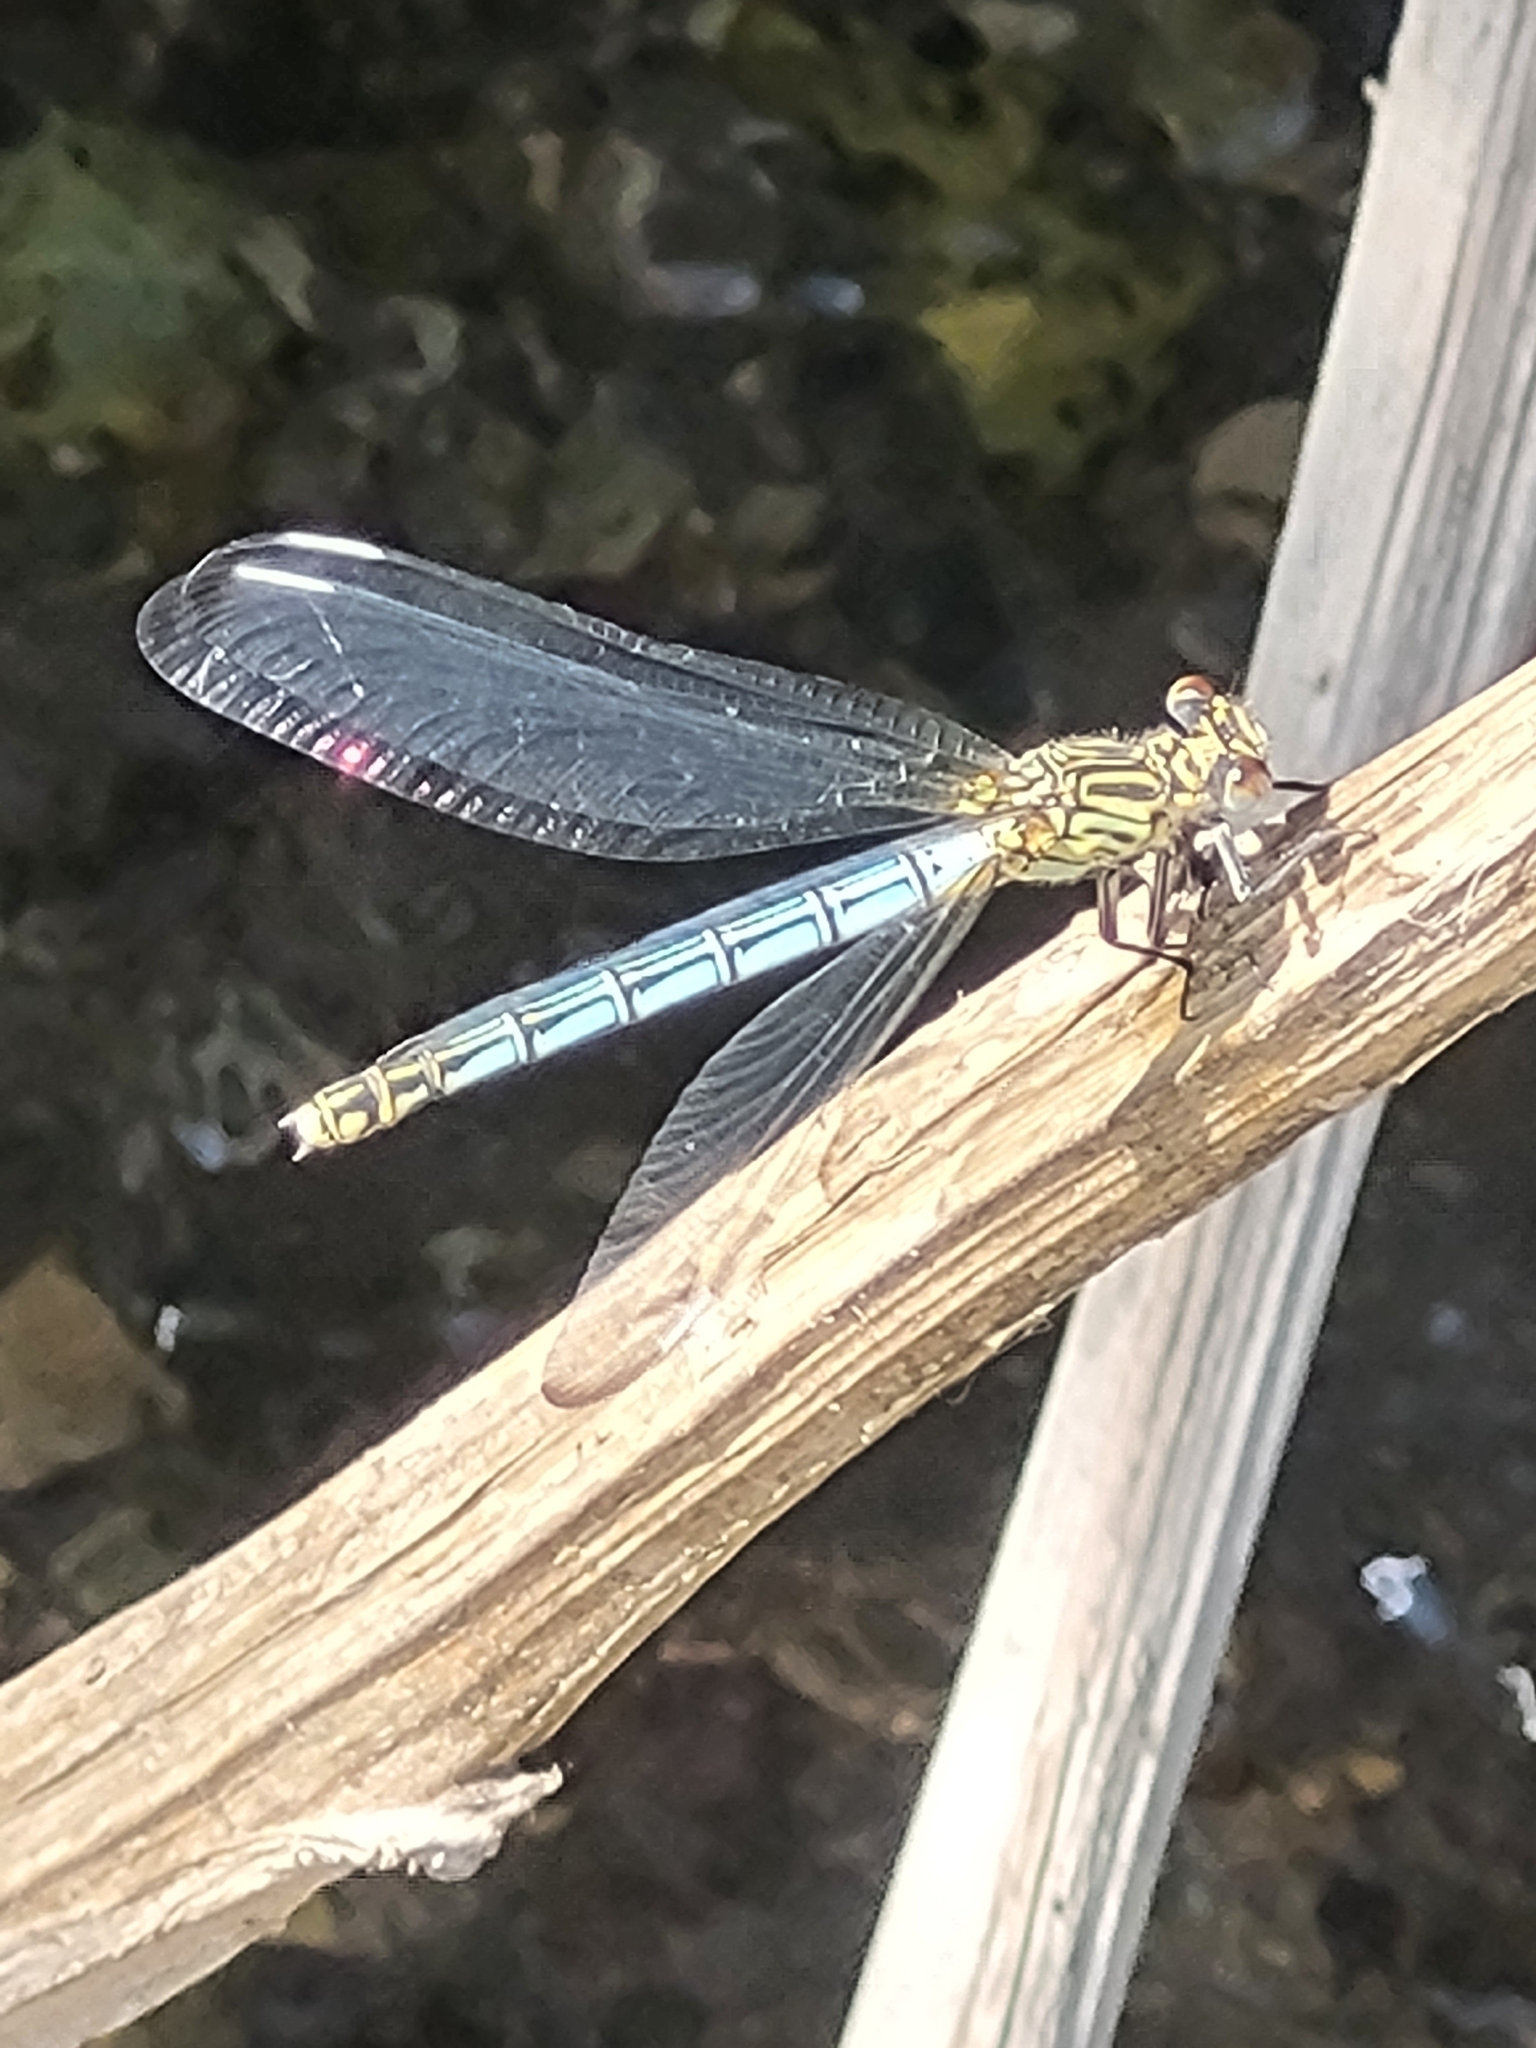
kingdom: Animalia
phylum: Arthropoda
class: Insecta
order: Odonata
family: Euphaeidae
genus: Epallage
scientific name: Epallage fatime
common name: Odalisque
